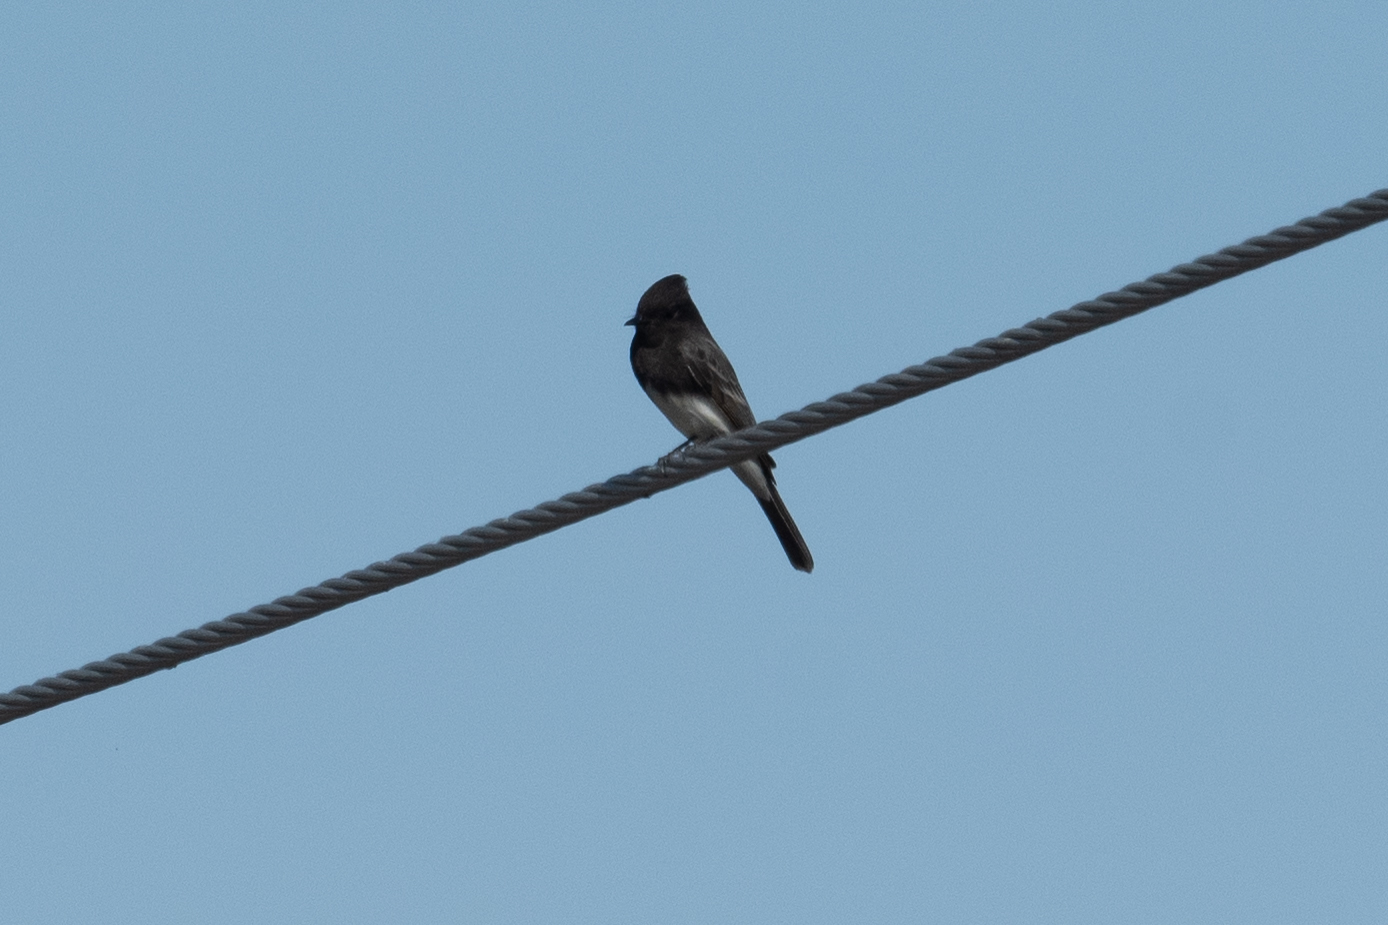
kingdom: Animalia
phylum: Chordata
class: Aves
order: Passeriformes
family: Tyrannidae
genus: Sayornis
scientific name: Sayornis nigricans
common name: Black phoebe
